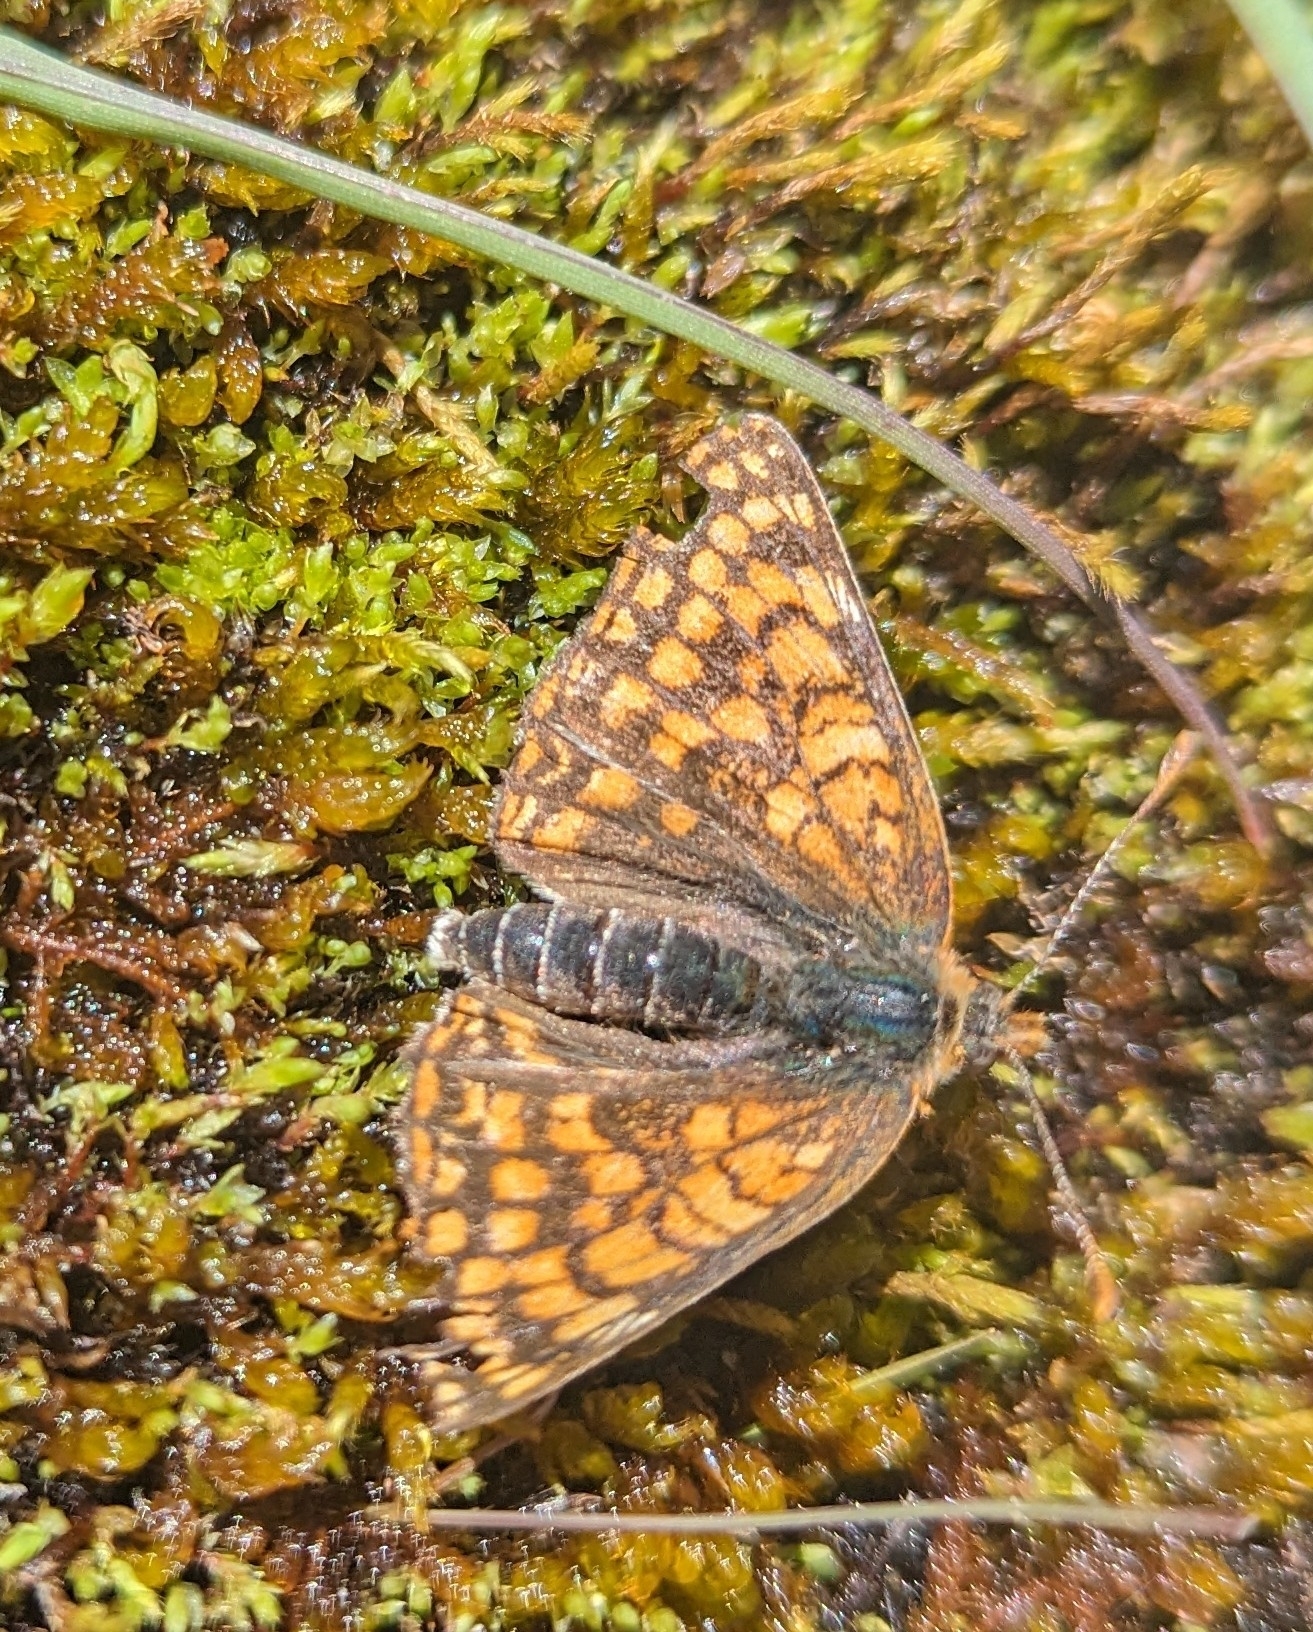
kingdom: Animalia
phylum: Arthropoda
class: Insecta
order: Lepidoptera
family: Nymphalidae
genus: Chlosyne
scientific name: Chlosyne palla
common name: Northern checkerspot
